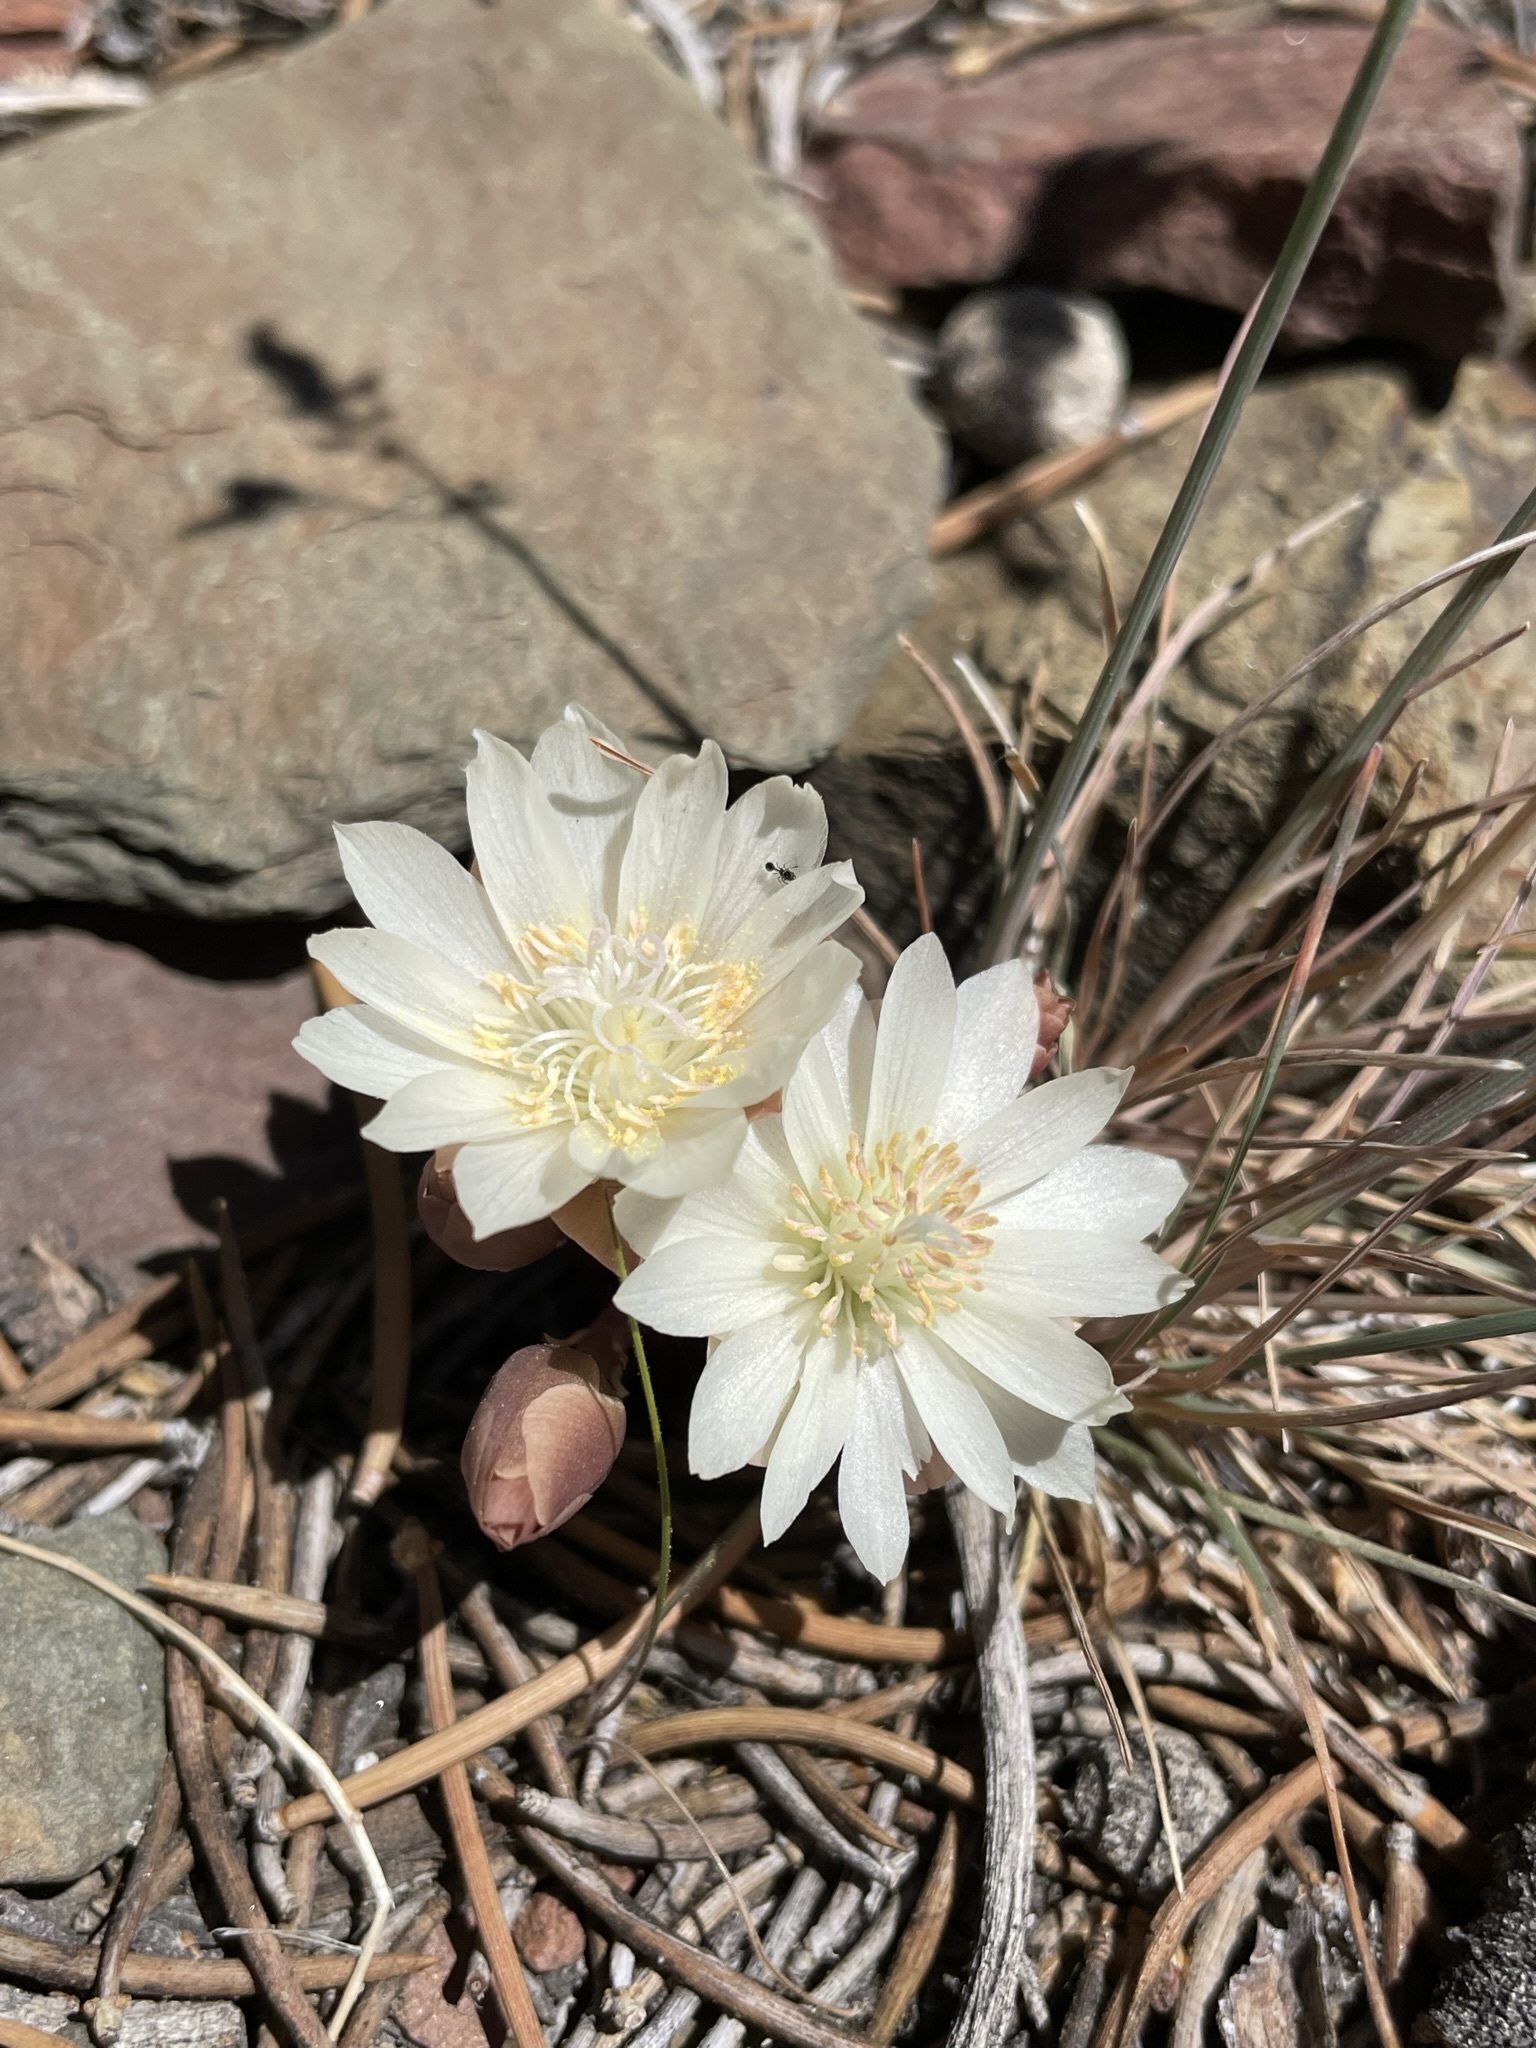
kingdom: Plantae
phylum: Tracheophyta
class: Magnoliopsida
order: Caryophyllales
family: Montiaceae
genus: Lewisia
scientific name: Lewisia rediviva
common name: Bitter-root
